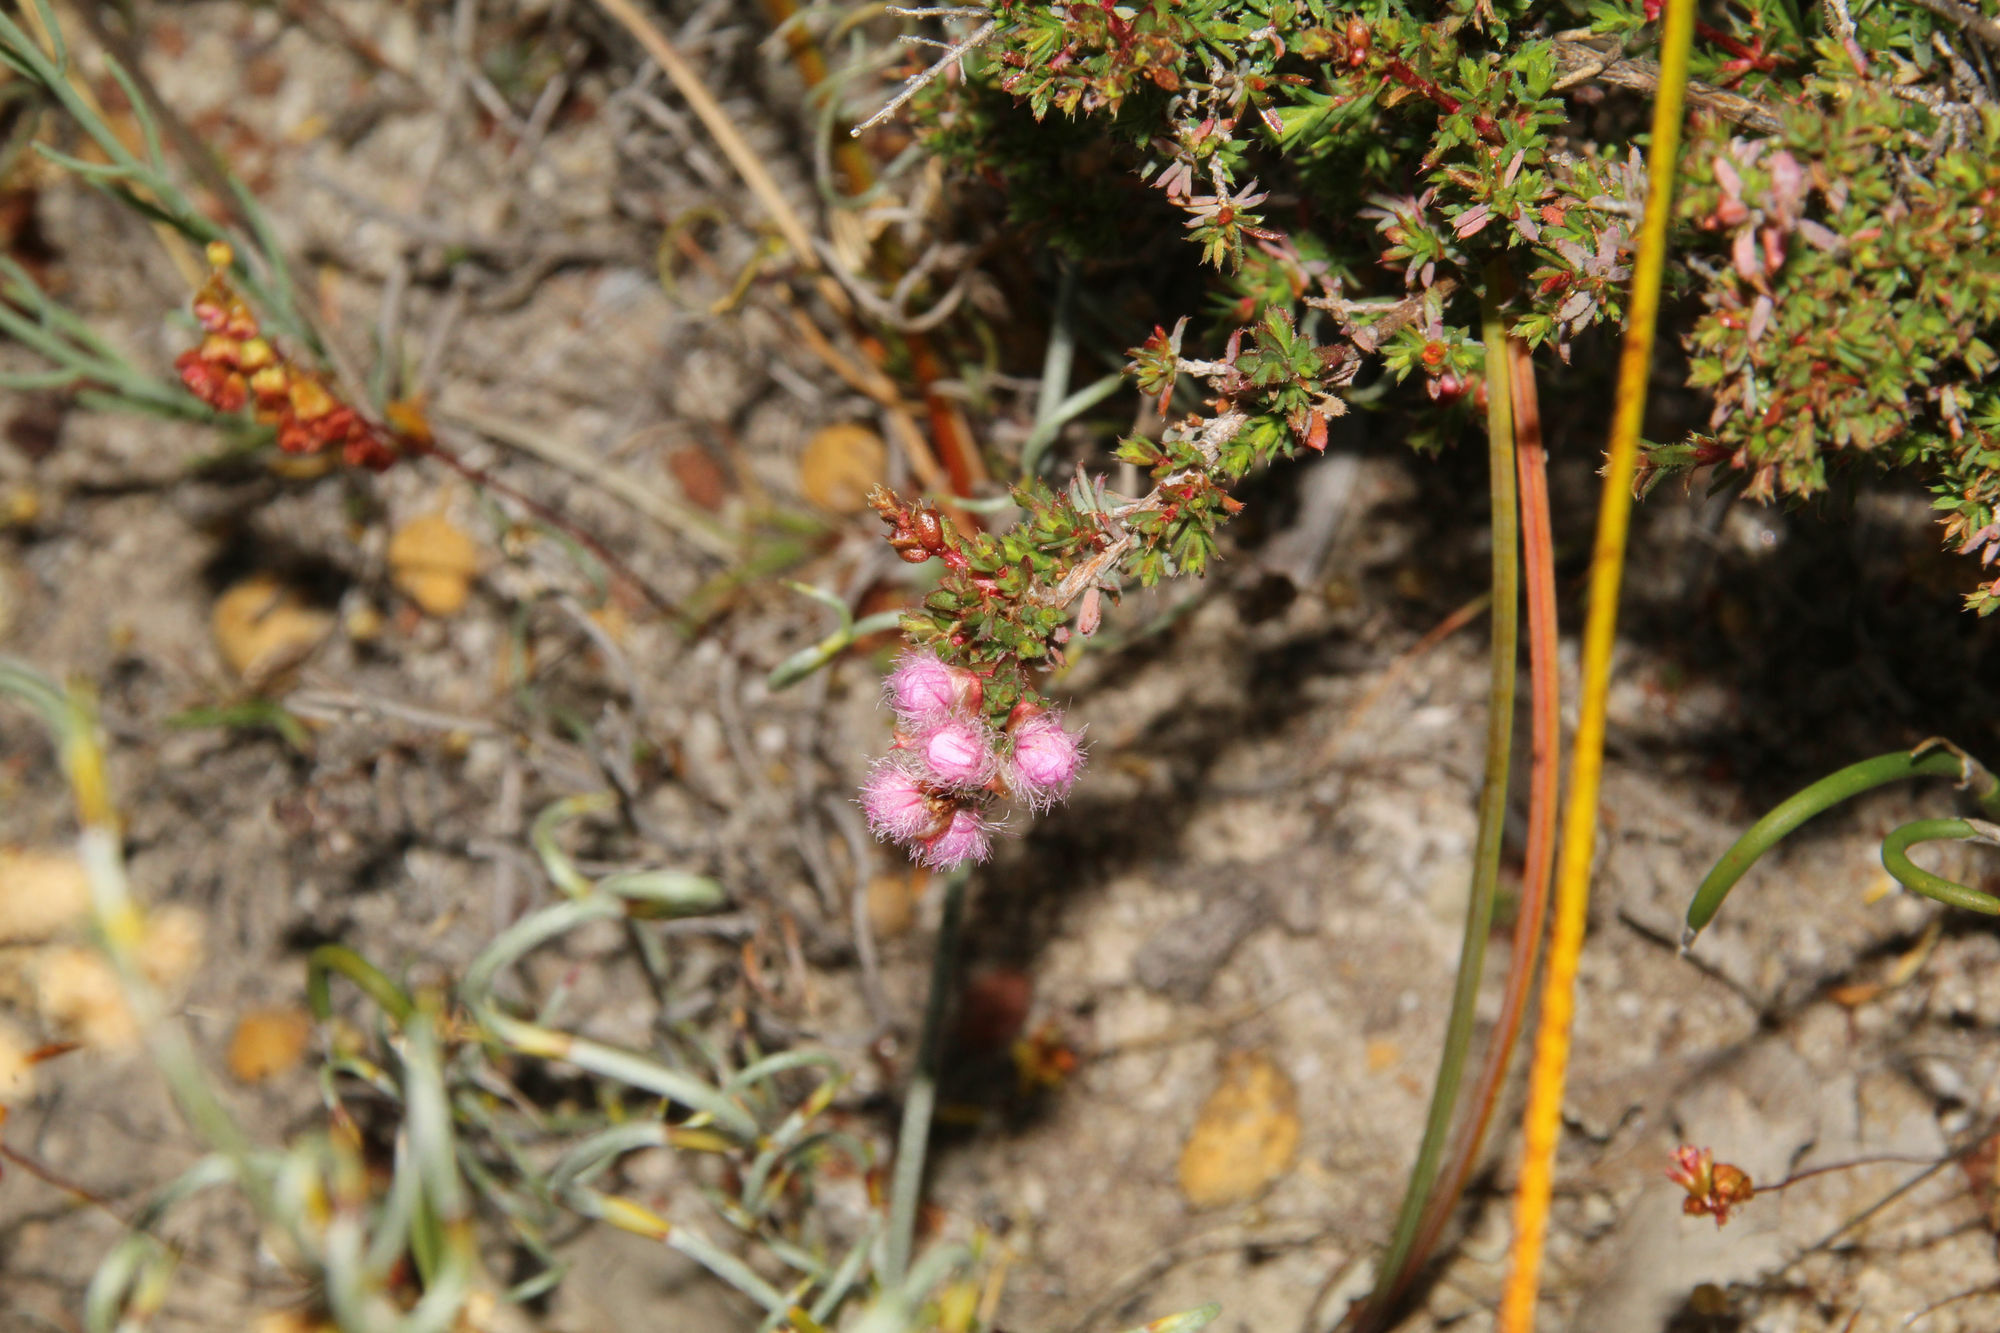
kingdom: Plantae
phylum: Tracheophyta
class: Magnoliopsida
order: Myrtales
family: Myrtaceae
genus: Verticordia
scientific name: Verticordia pennigera
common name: Native-tea
